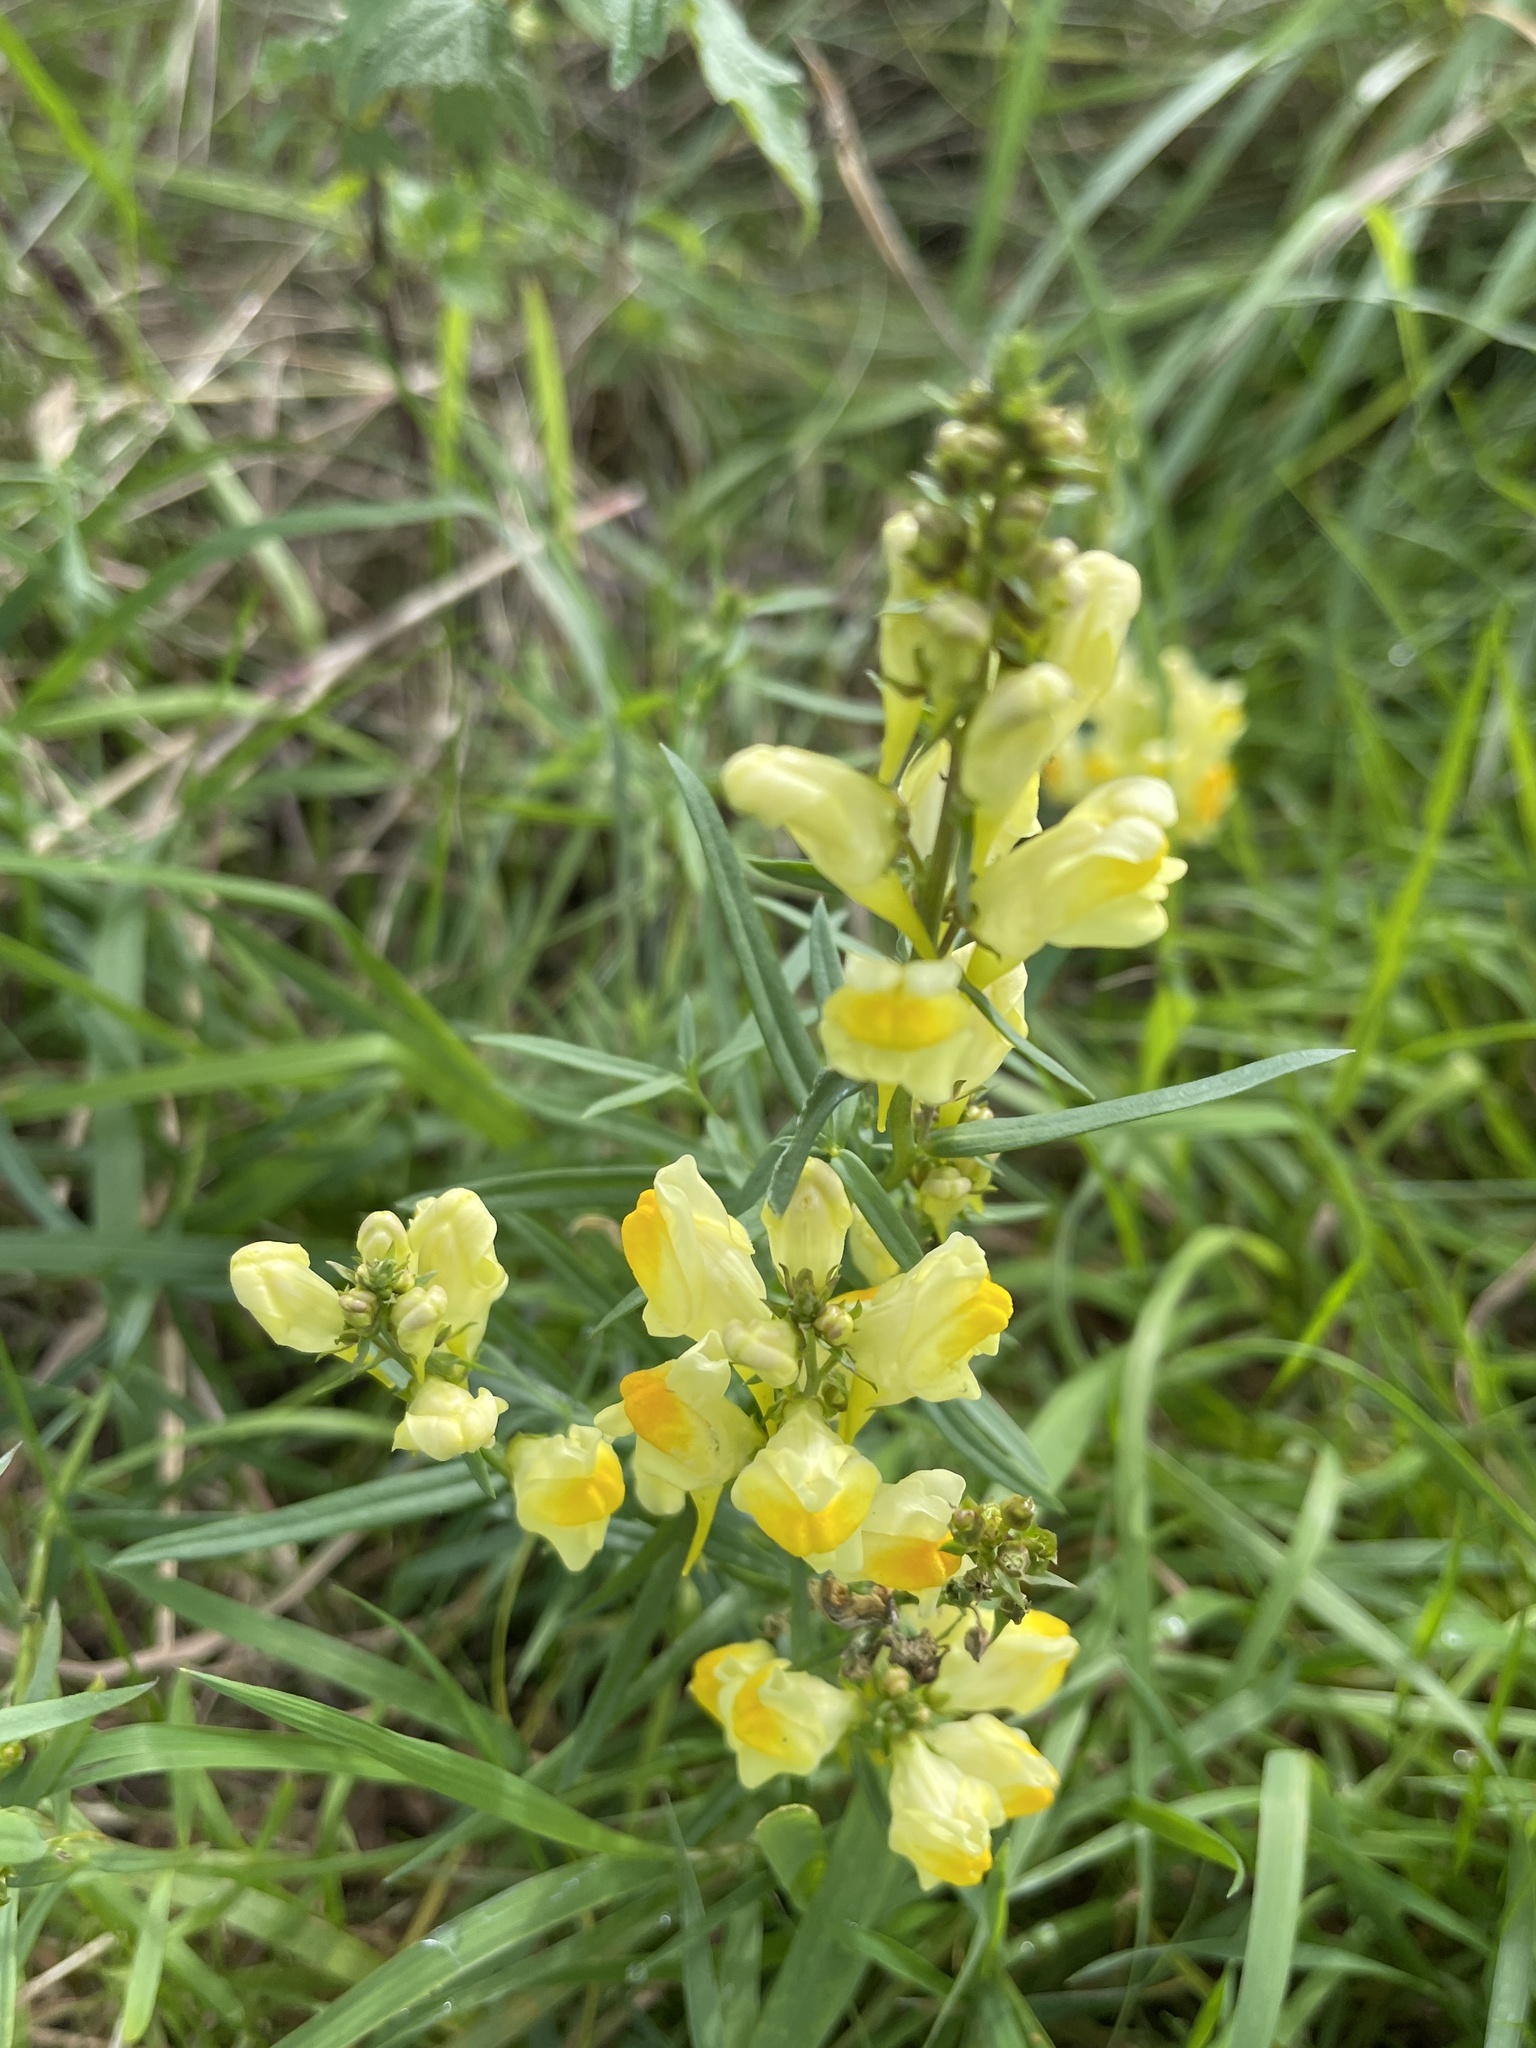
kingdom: Plantae
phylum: Tracheophyta
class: Magnoliopsida
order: Lamiales
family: Plantaginaceae
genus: Linaria
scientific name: Linaria vulgaris
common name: Butter and eggs
